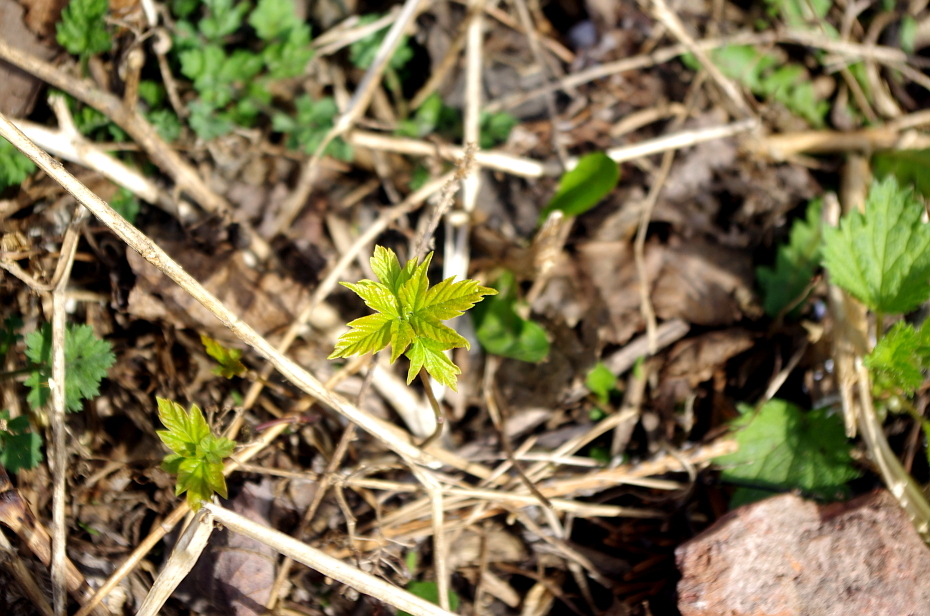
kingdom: Plantae
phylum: Tracheophyta
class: Magnoliopsida
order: Sapindales
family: Sapindaceae
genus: Acer
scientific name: Acer negundo
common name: Ashleaf maple
